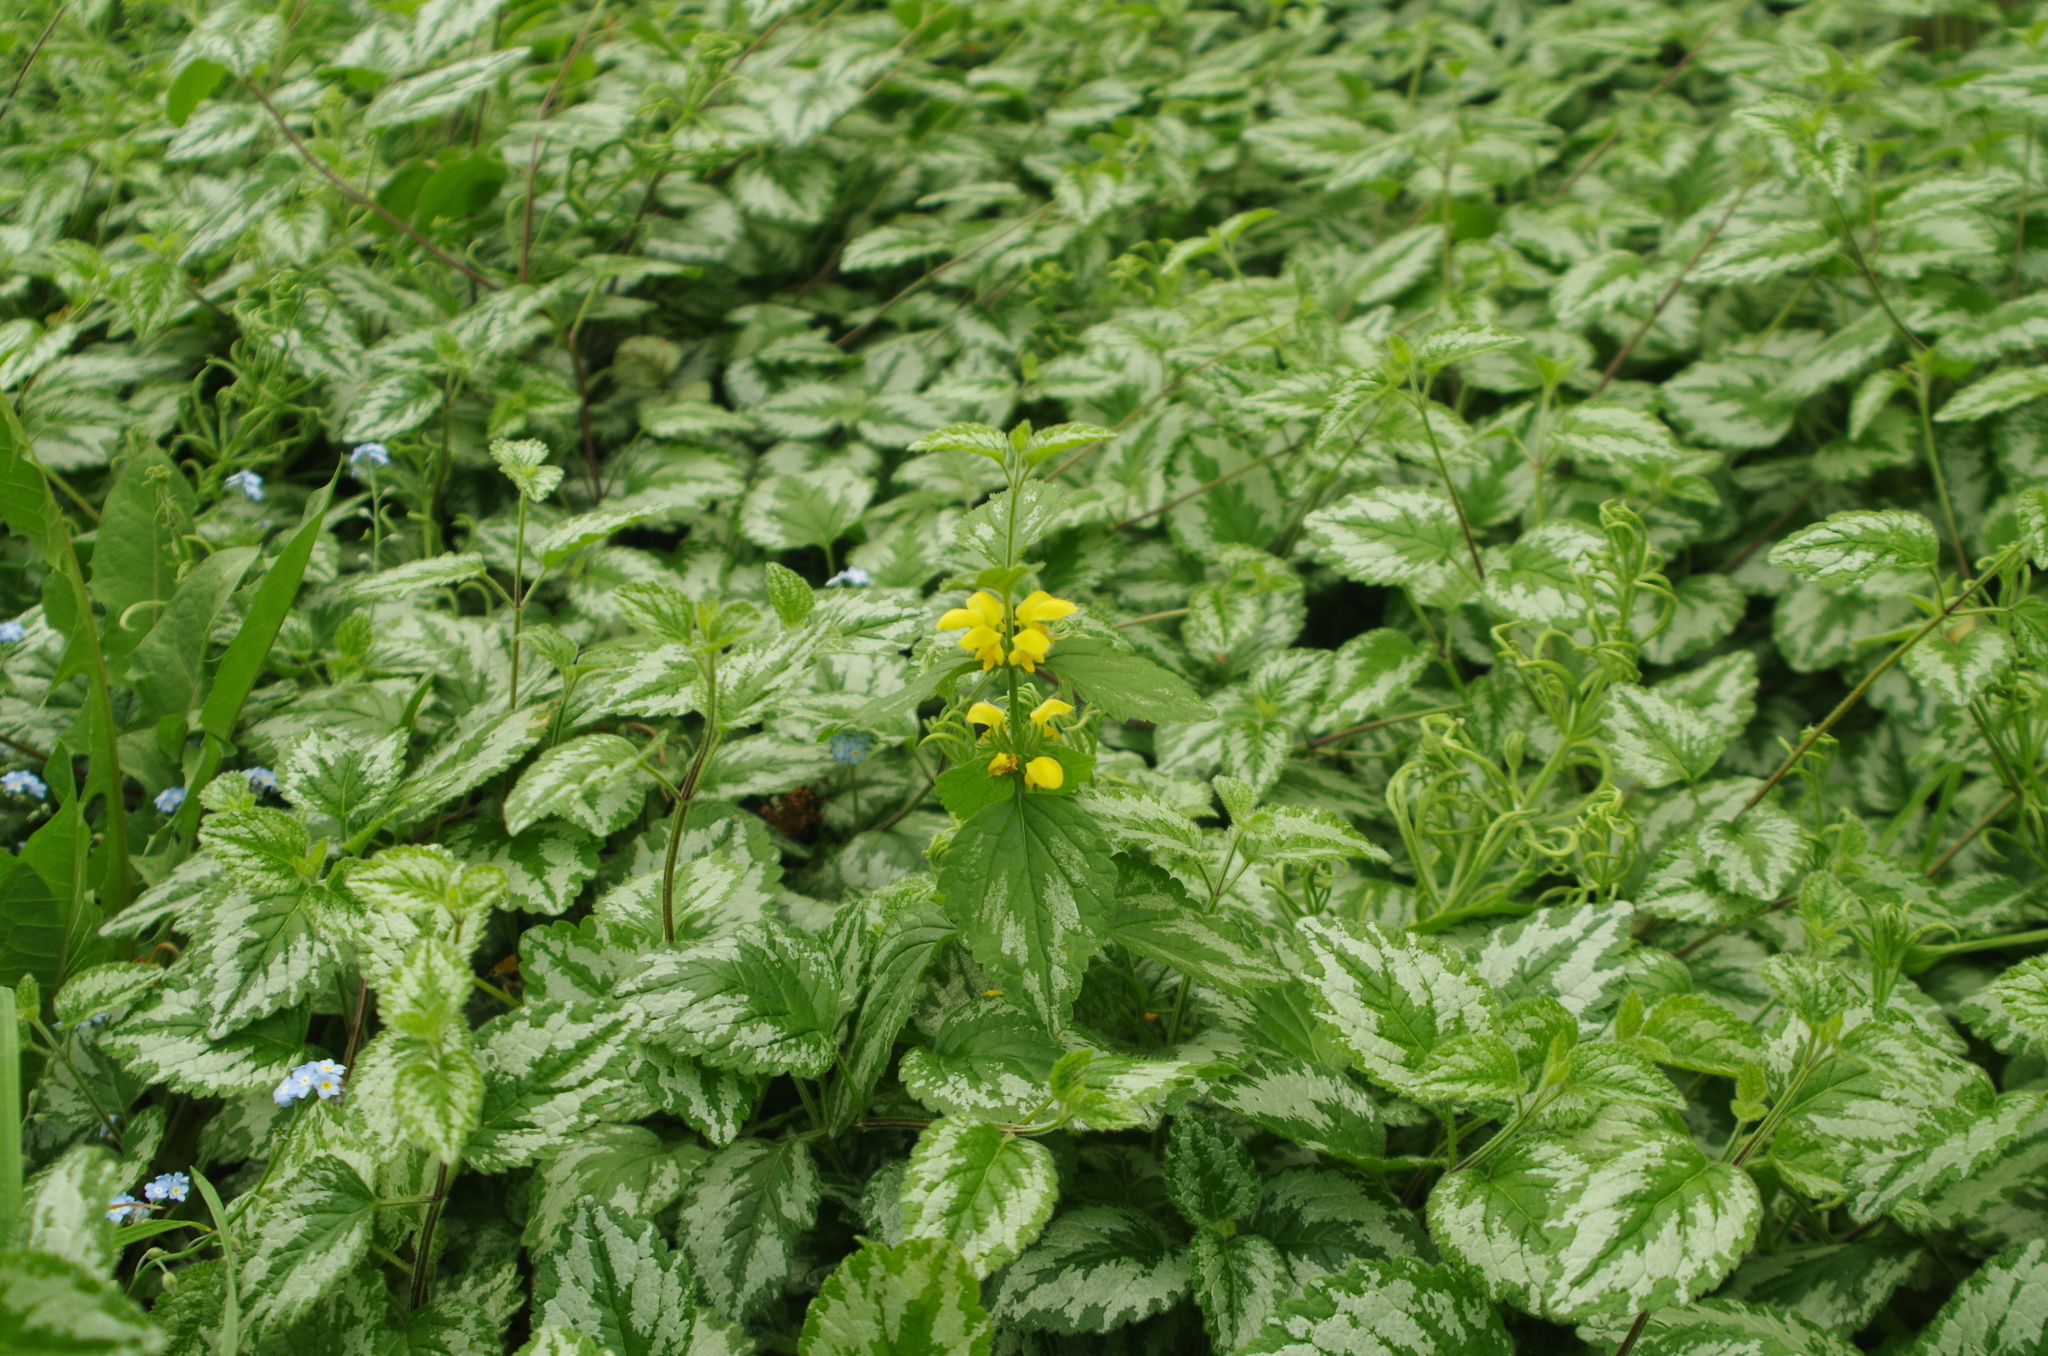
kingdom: Plantae
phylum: Tracheophyta
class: Magnoliopsida
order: Lamiales
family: Lamiaceae
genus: Lamium
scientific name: Lamium galeobdolon
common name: Yellow archangel
